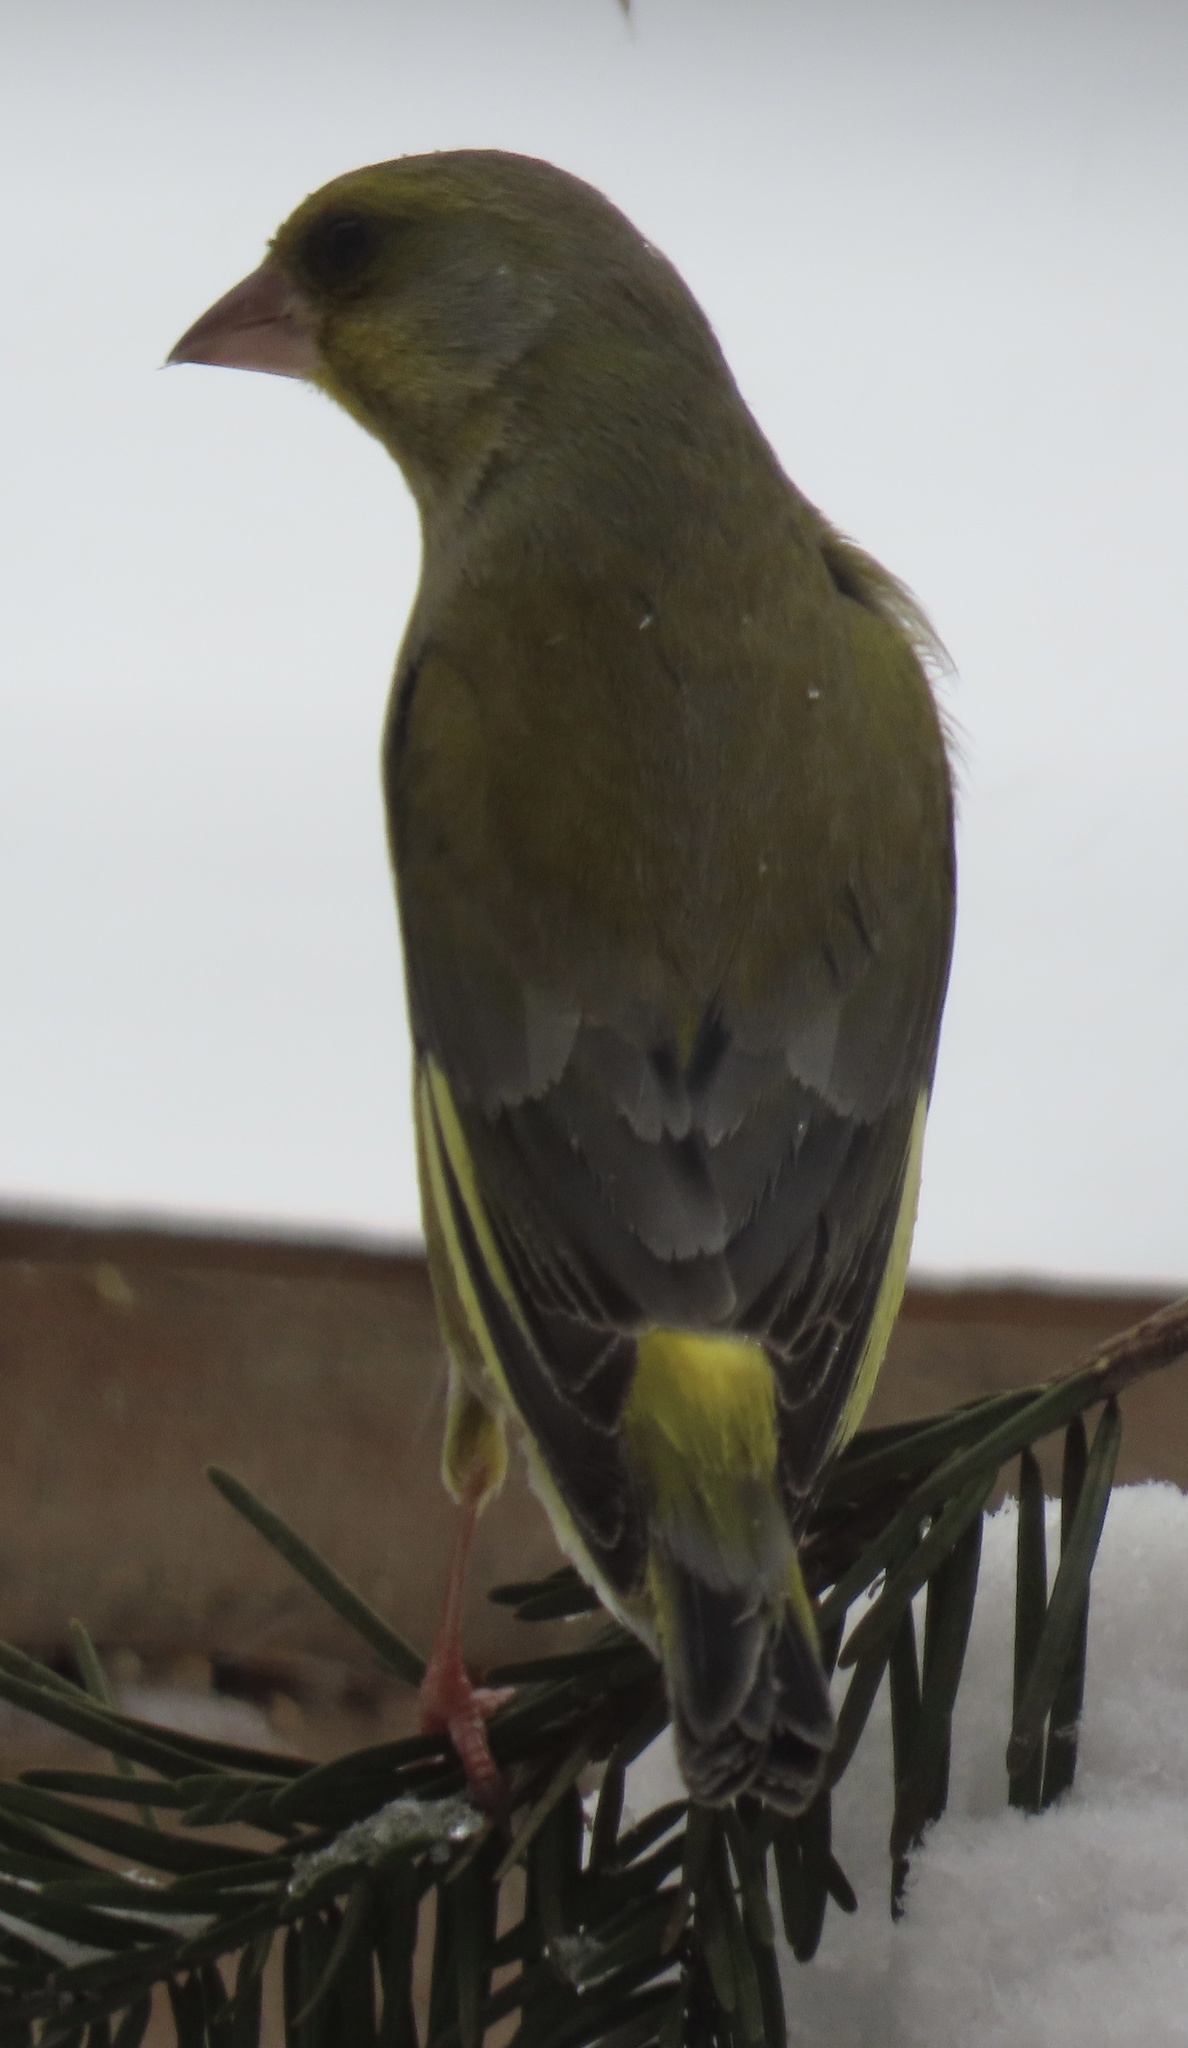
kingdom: Plantae
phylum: Tracheophyta
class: Liliopsida
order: Poales
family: Poaceae
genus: Chloris
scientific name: Chloris chloris
